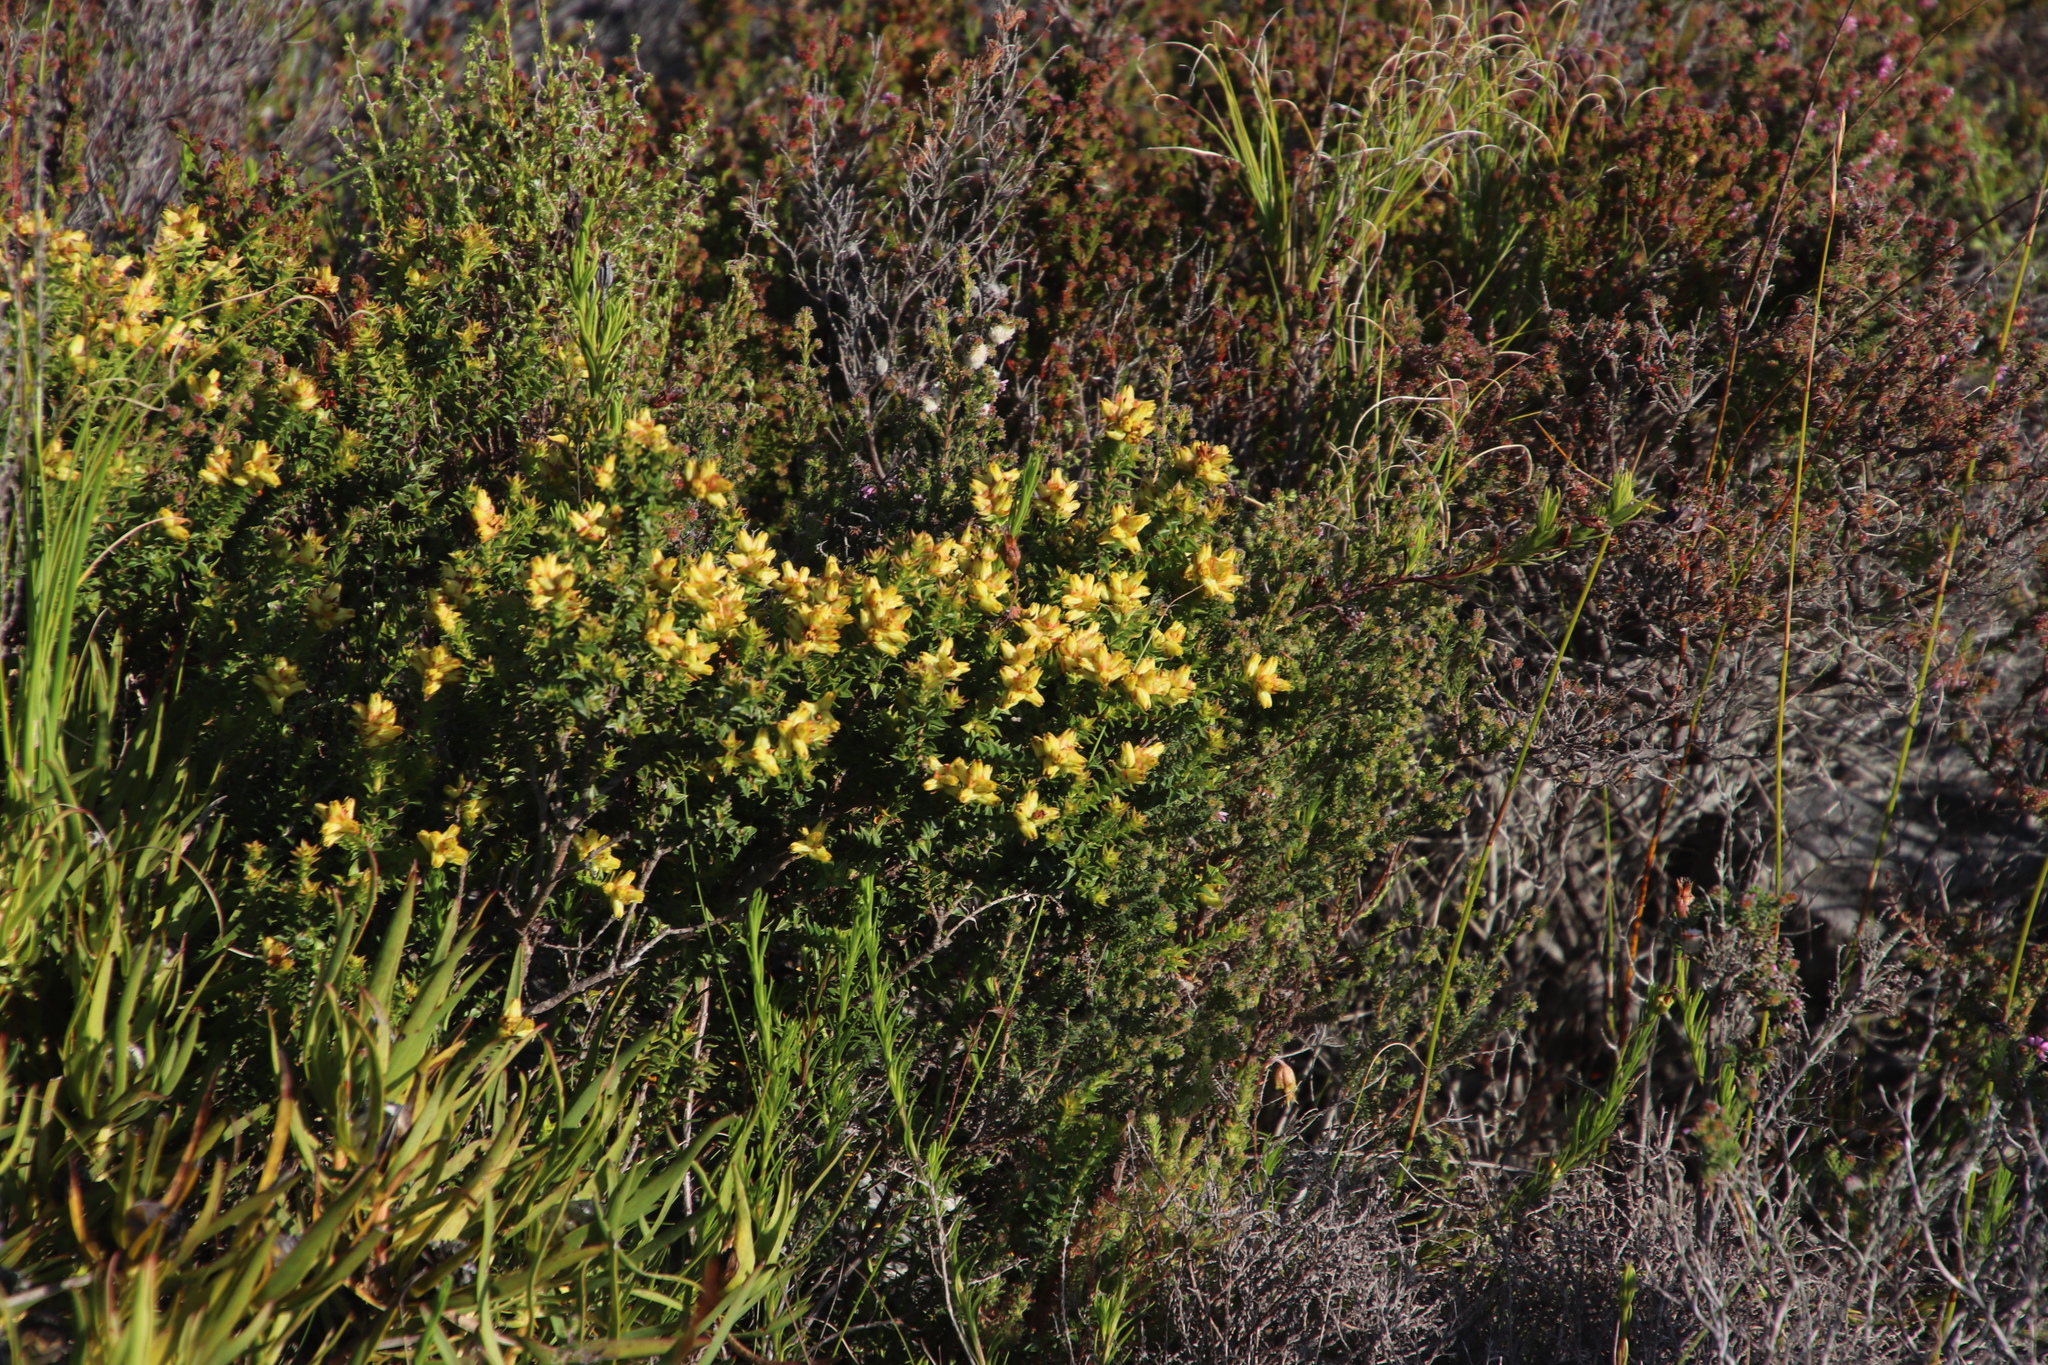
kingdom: Plantae
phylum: Tracheophyta
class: Magnoliopsida
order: Myrtales
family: Penaeaceae
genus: Penaea
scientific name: Penaea mucronata
